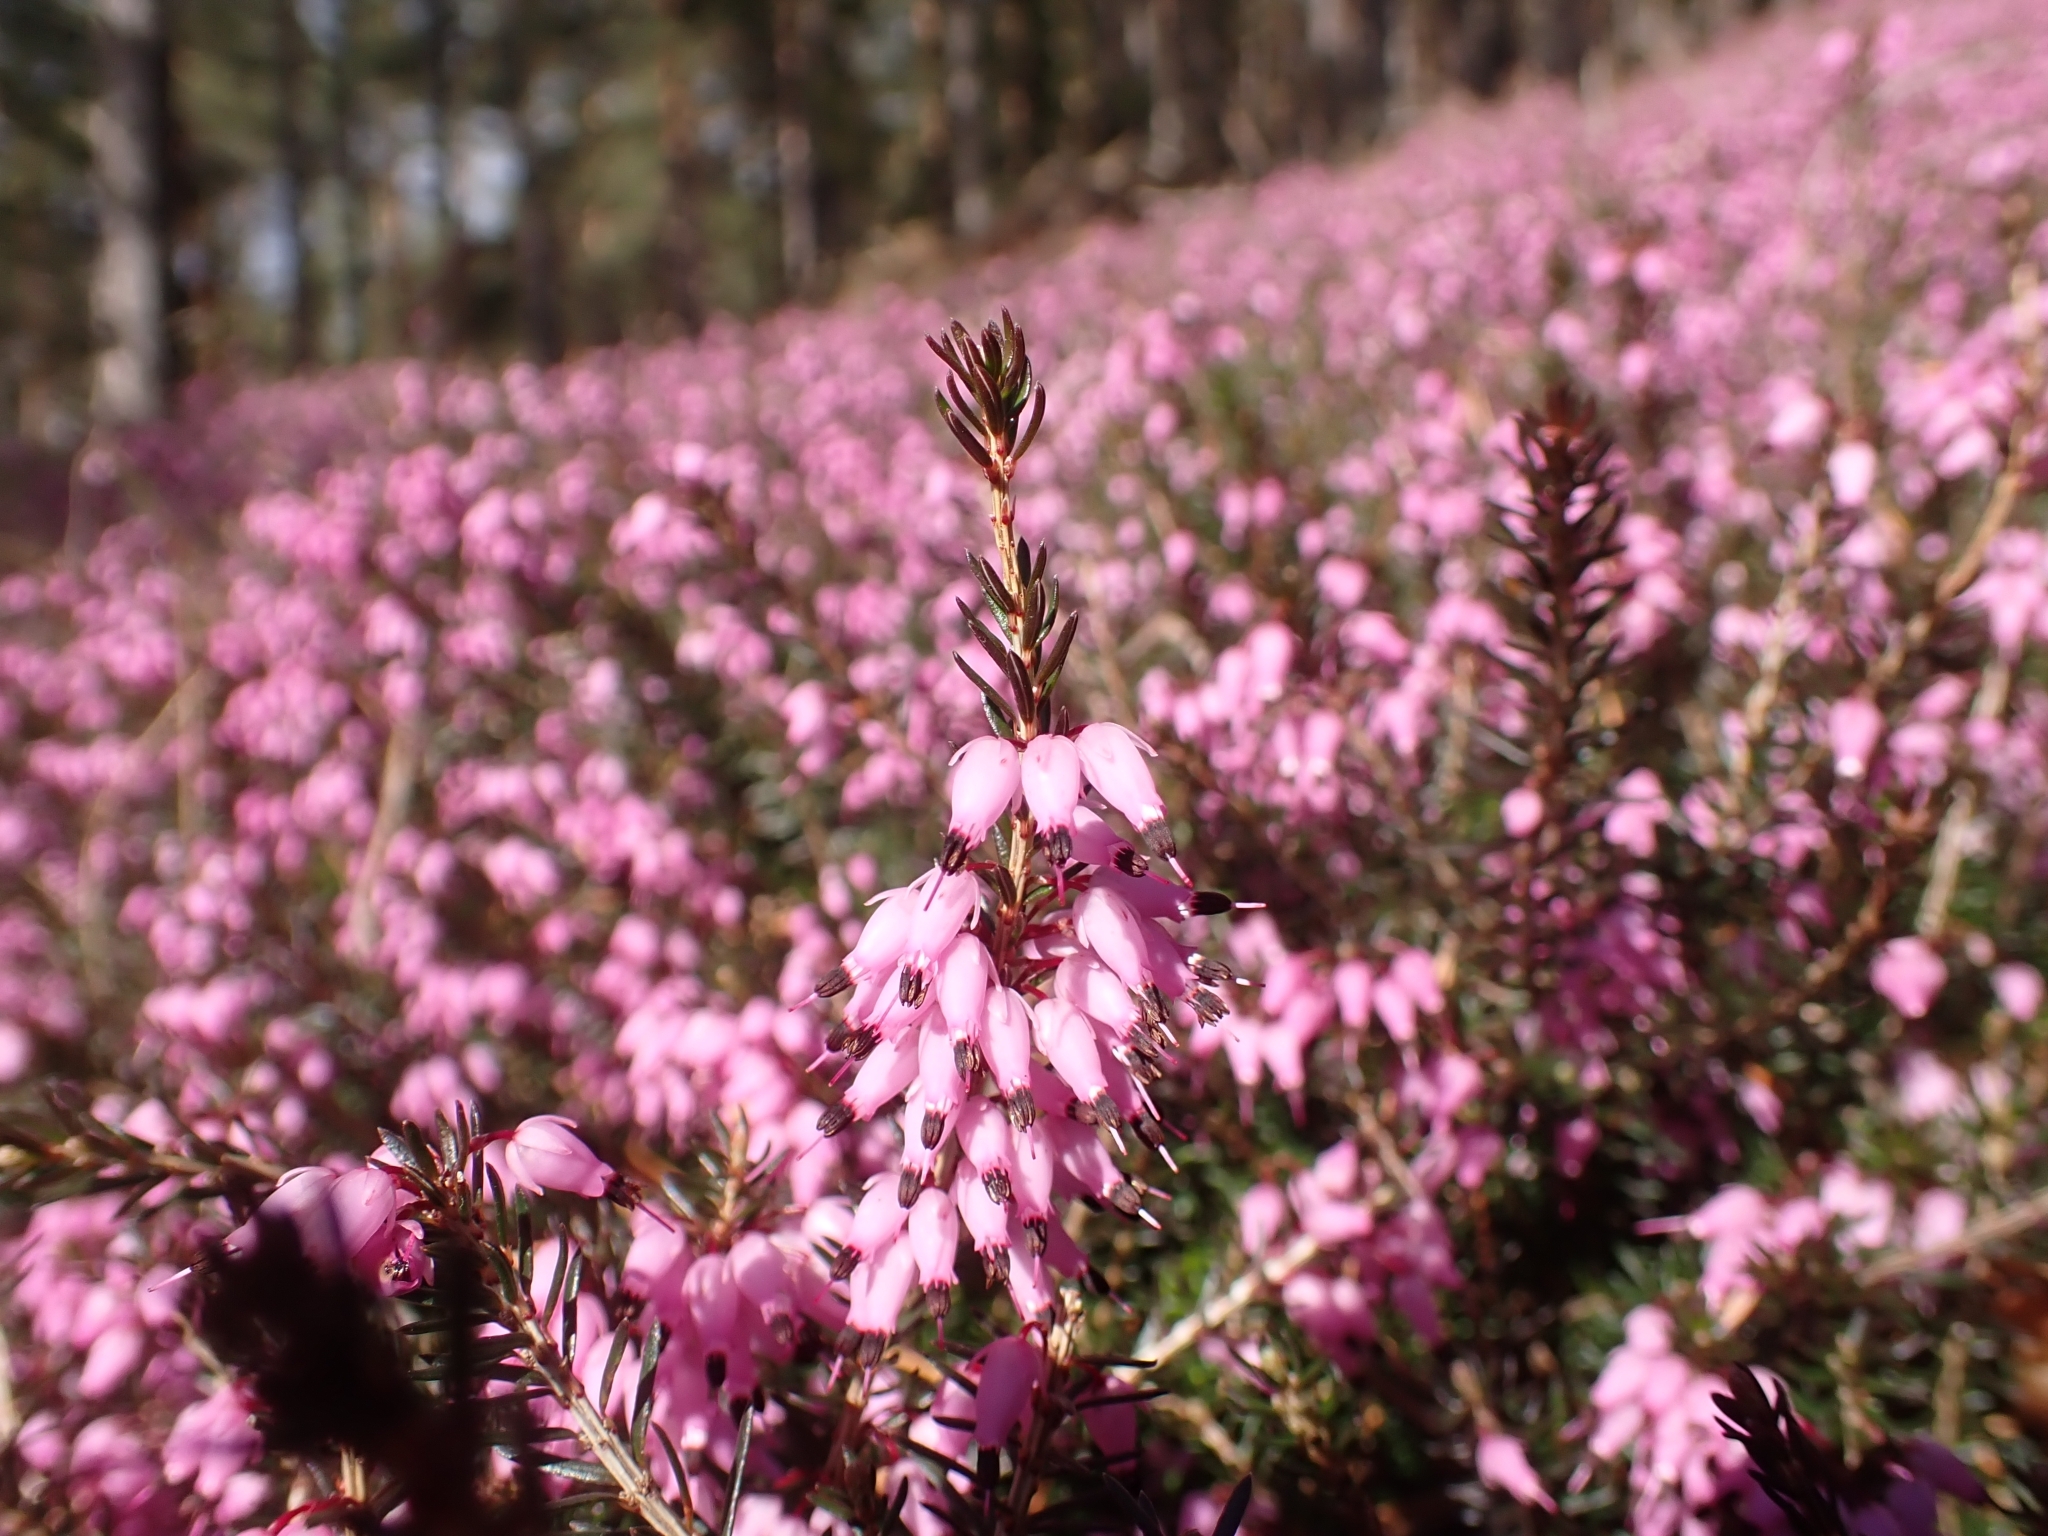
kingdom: Plantae
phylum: Tracheophyta
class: Magnoliopsida
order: Ericales
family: Ericaceae
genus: Erica
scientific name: Erica carnea
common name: Winter heath
